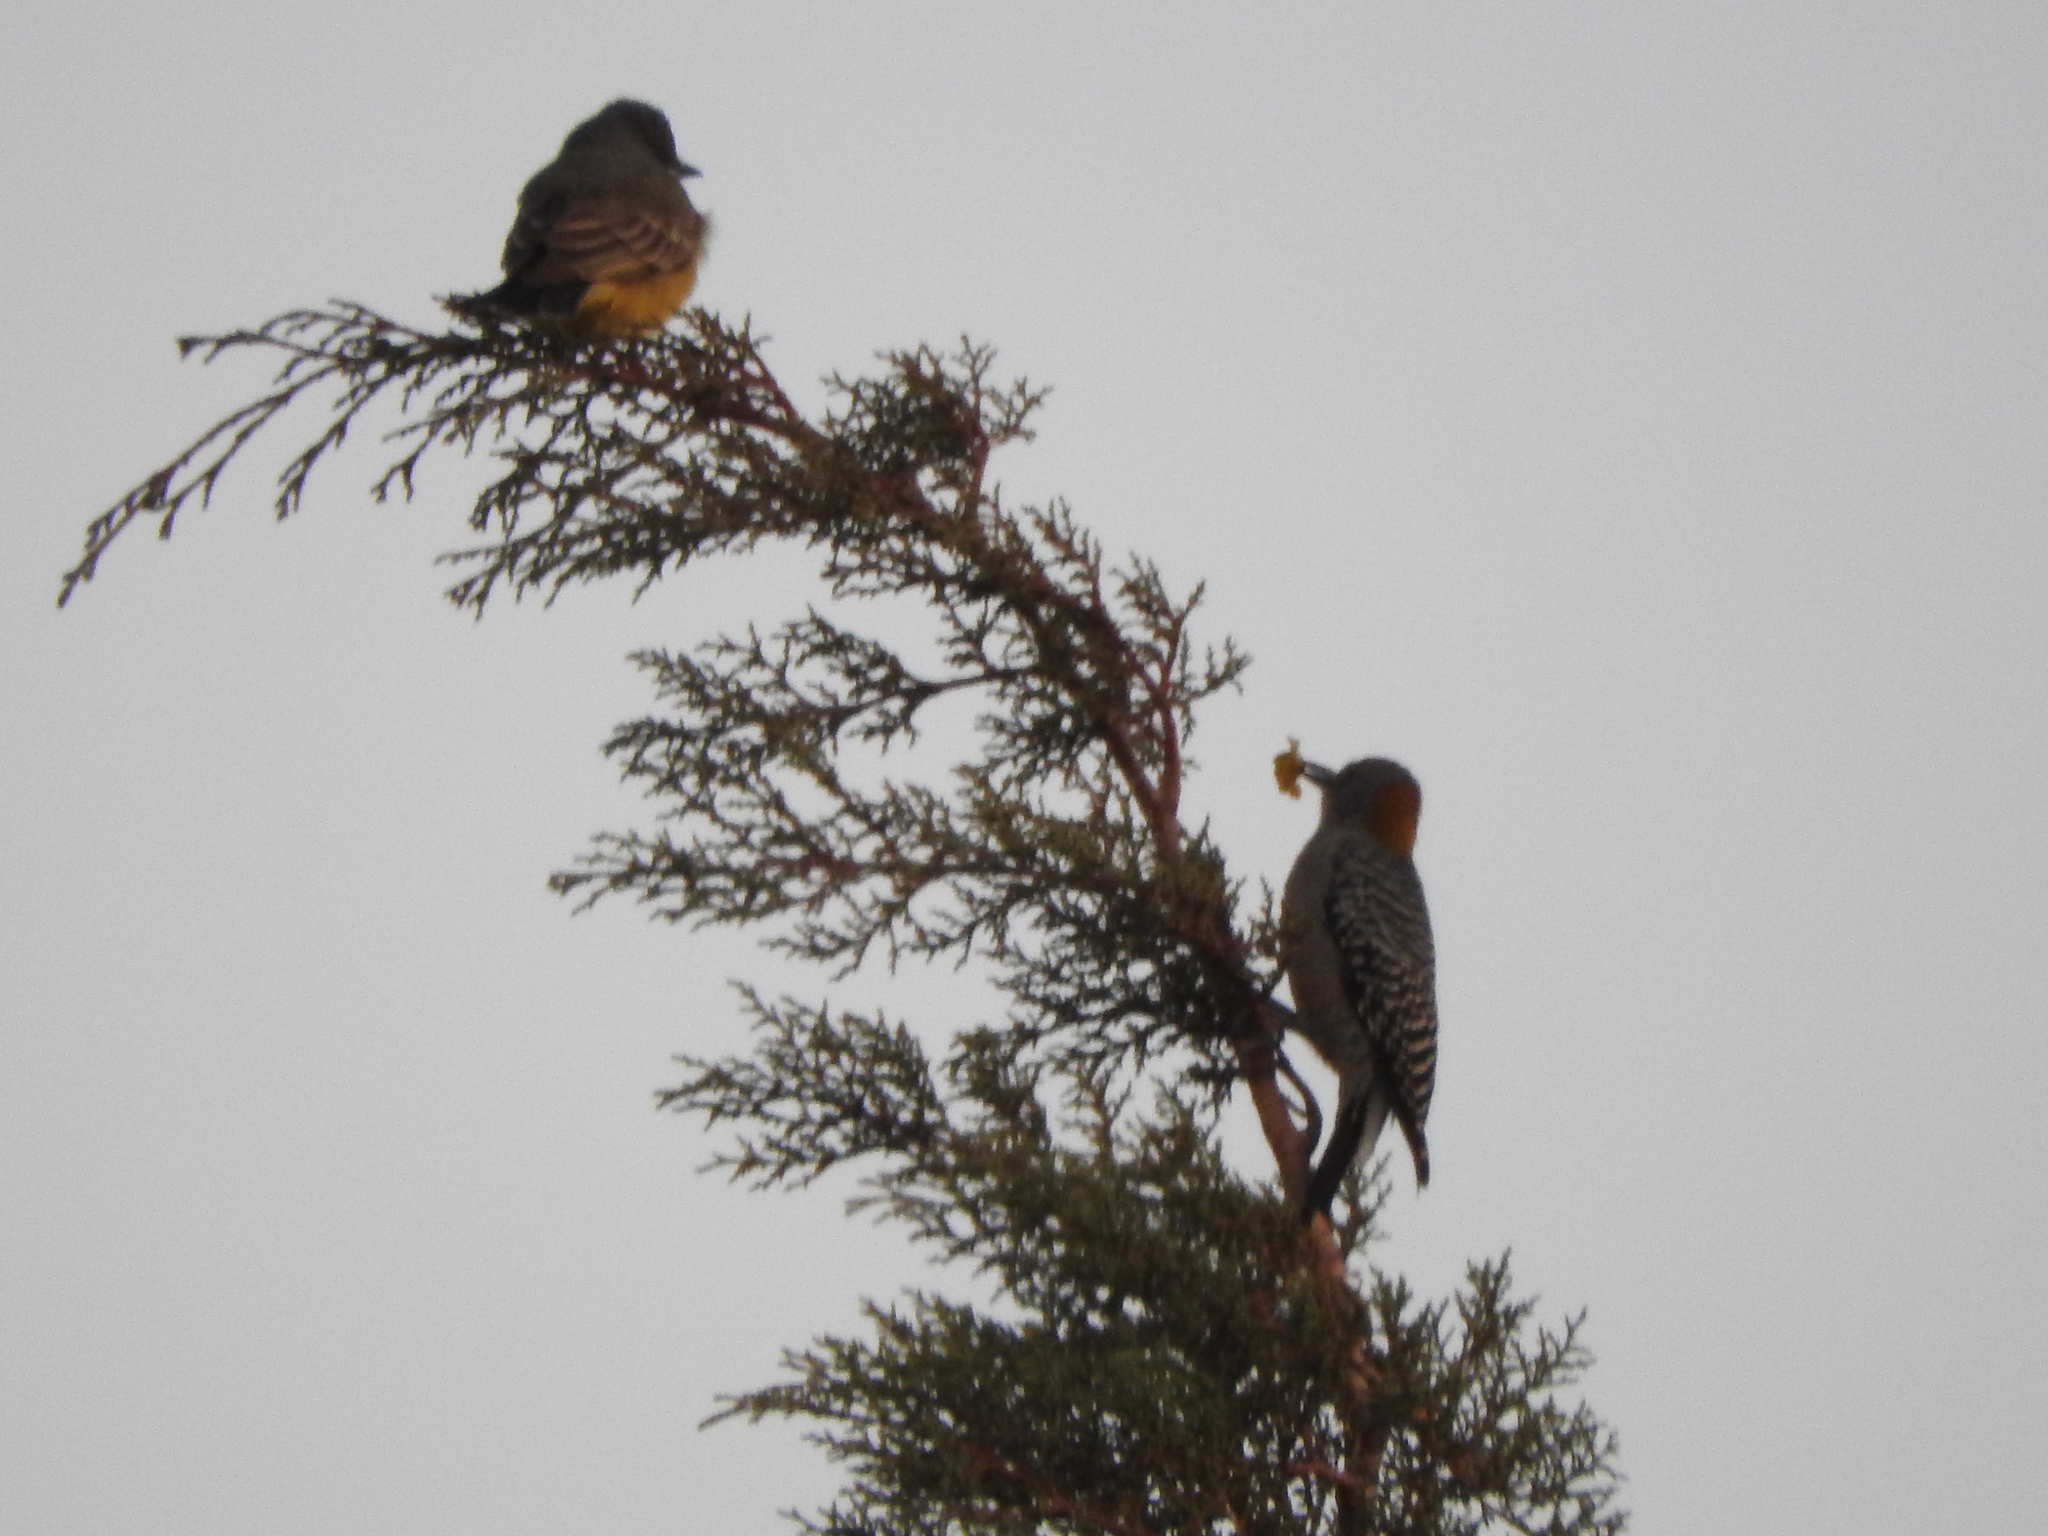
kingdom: Animalia
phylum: Chordata
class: Aves
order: Piciformes
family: Picidae
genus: Melanerpes
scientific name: Melanerpes aurifrons
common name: Golden-fronted woodpecker
